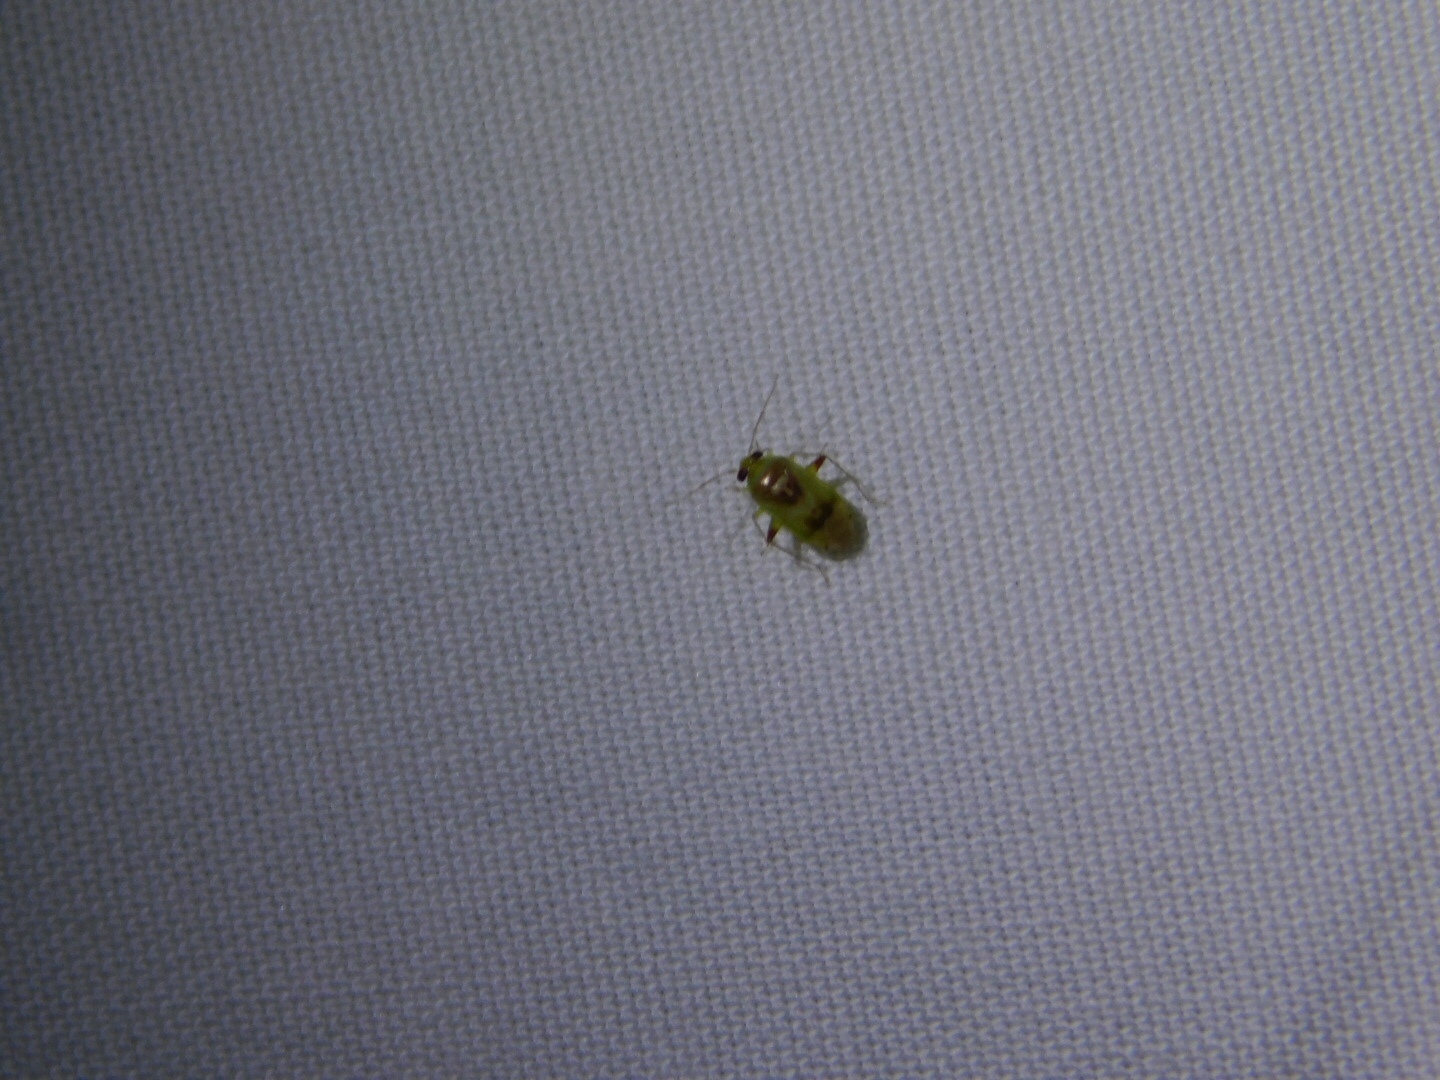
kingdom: Animalia
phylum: Arthropoda
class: Insecta
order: Hemiptera
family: Miridae
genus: Dagbertus
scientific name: Dagbertus
